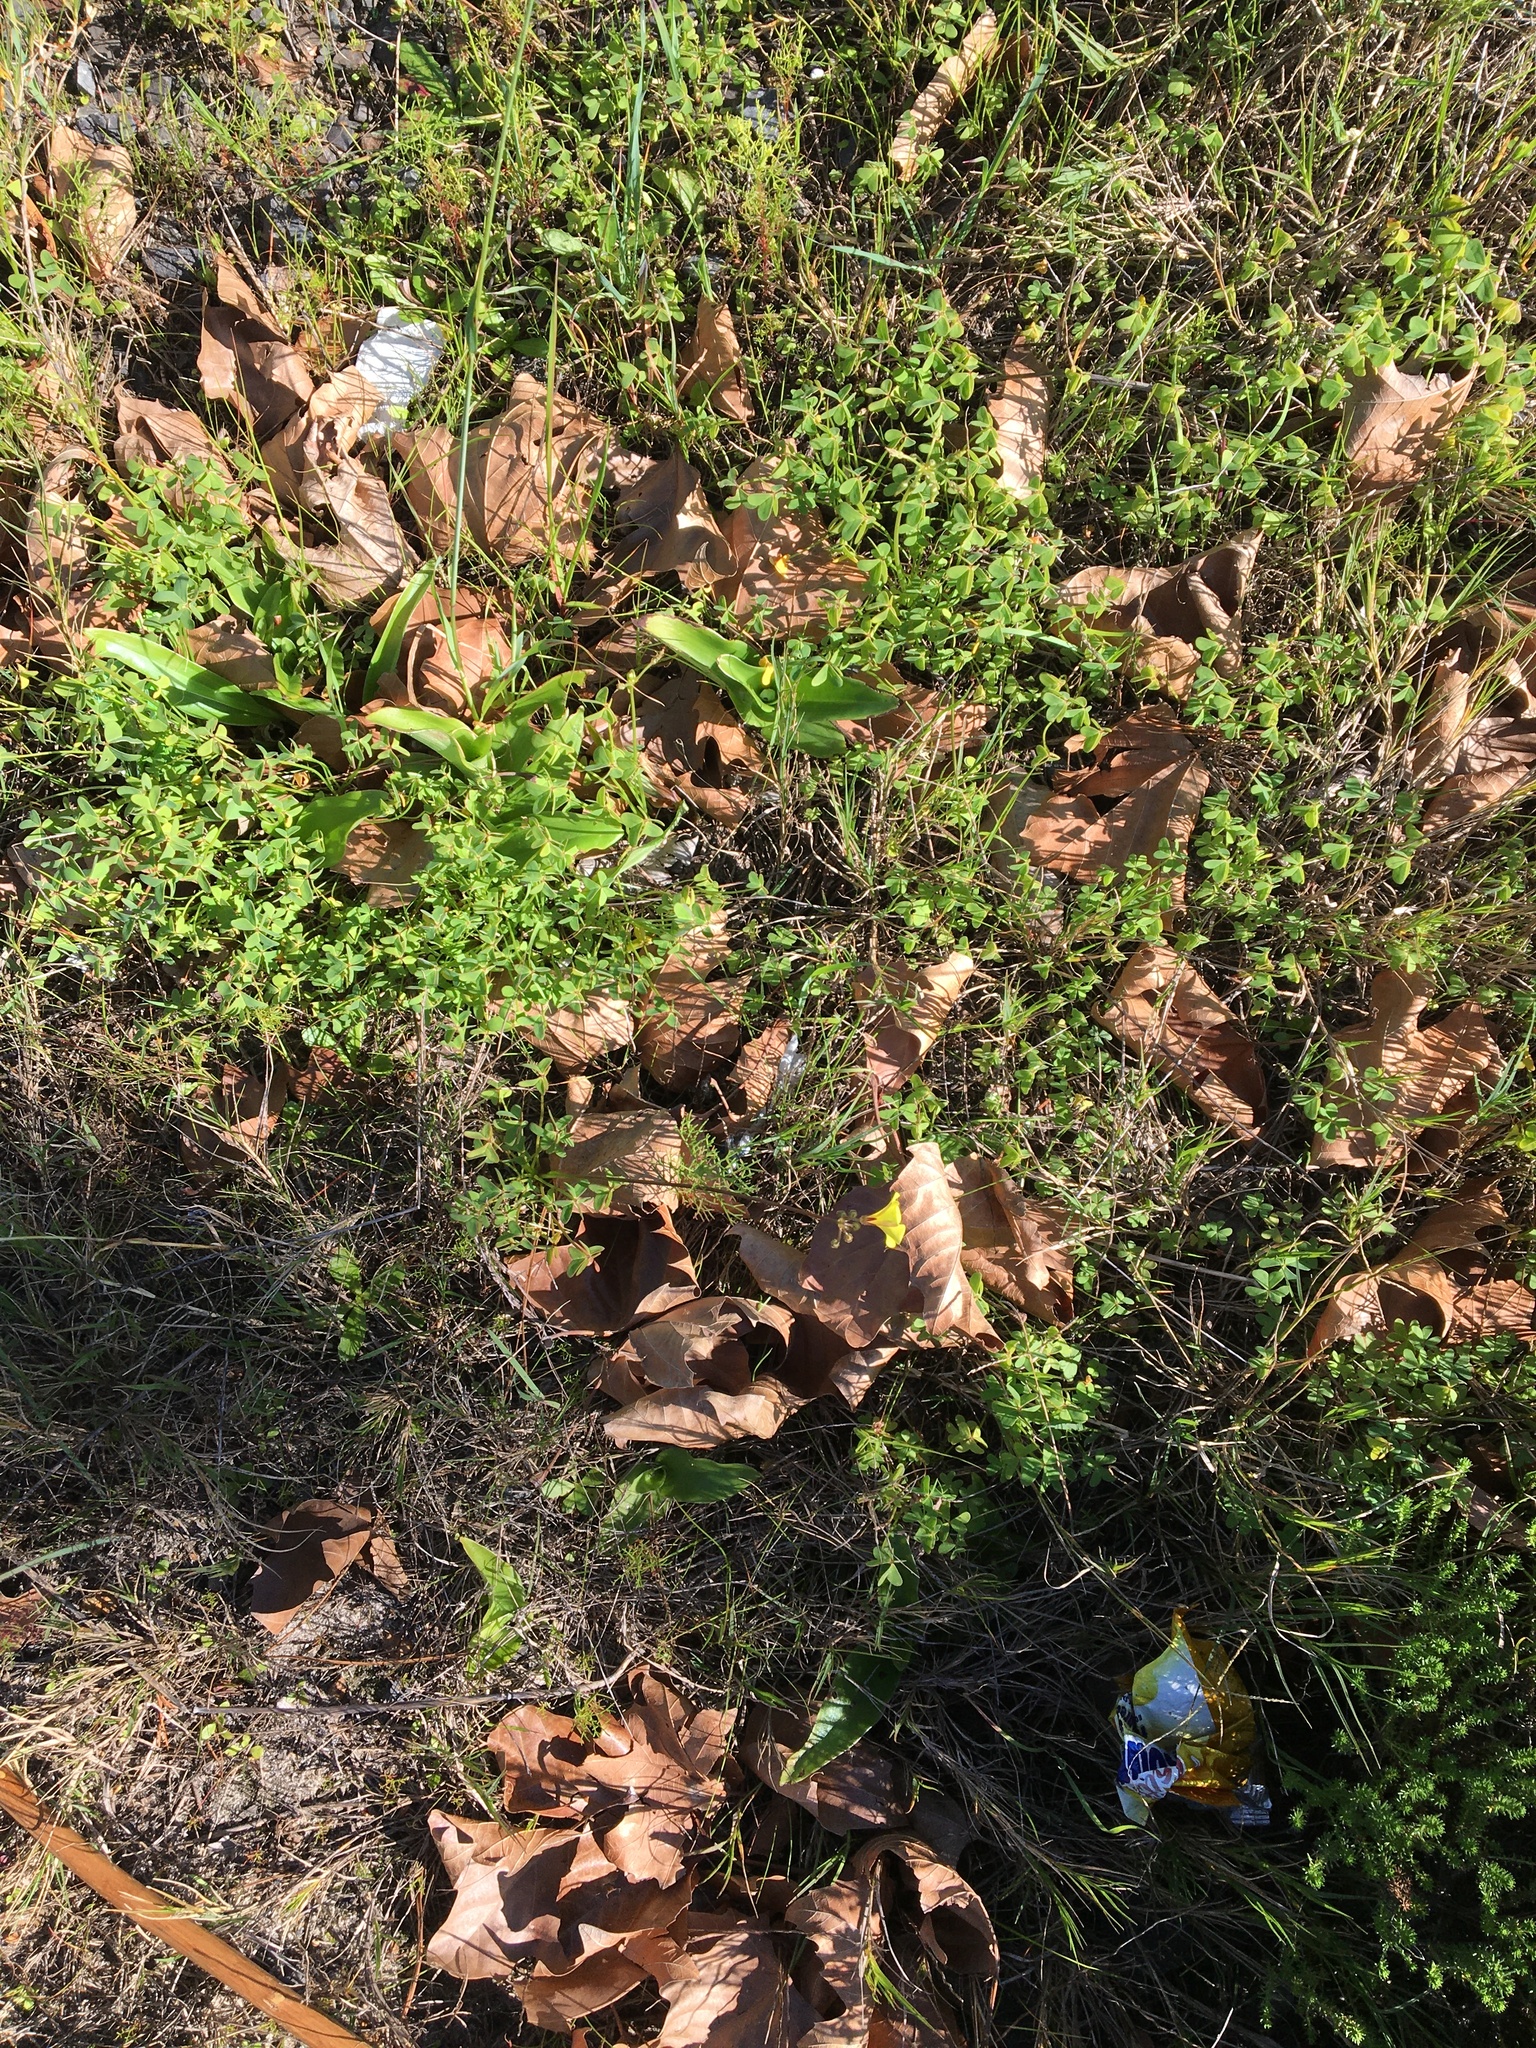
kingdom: Plantae
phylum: Tracheophyta
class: Liliopsida
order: Asparagales
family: Orchidaceae
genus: Satyrium
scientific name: Satyrium odorum
